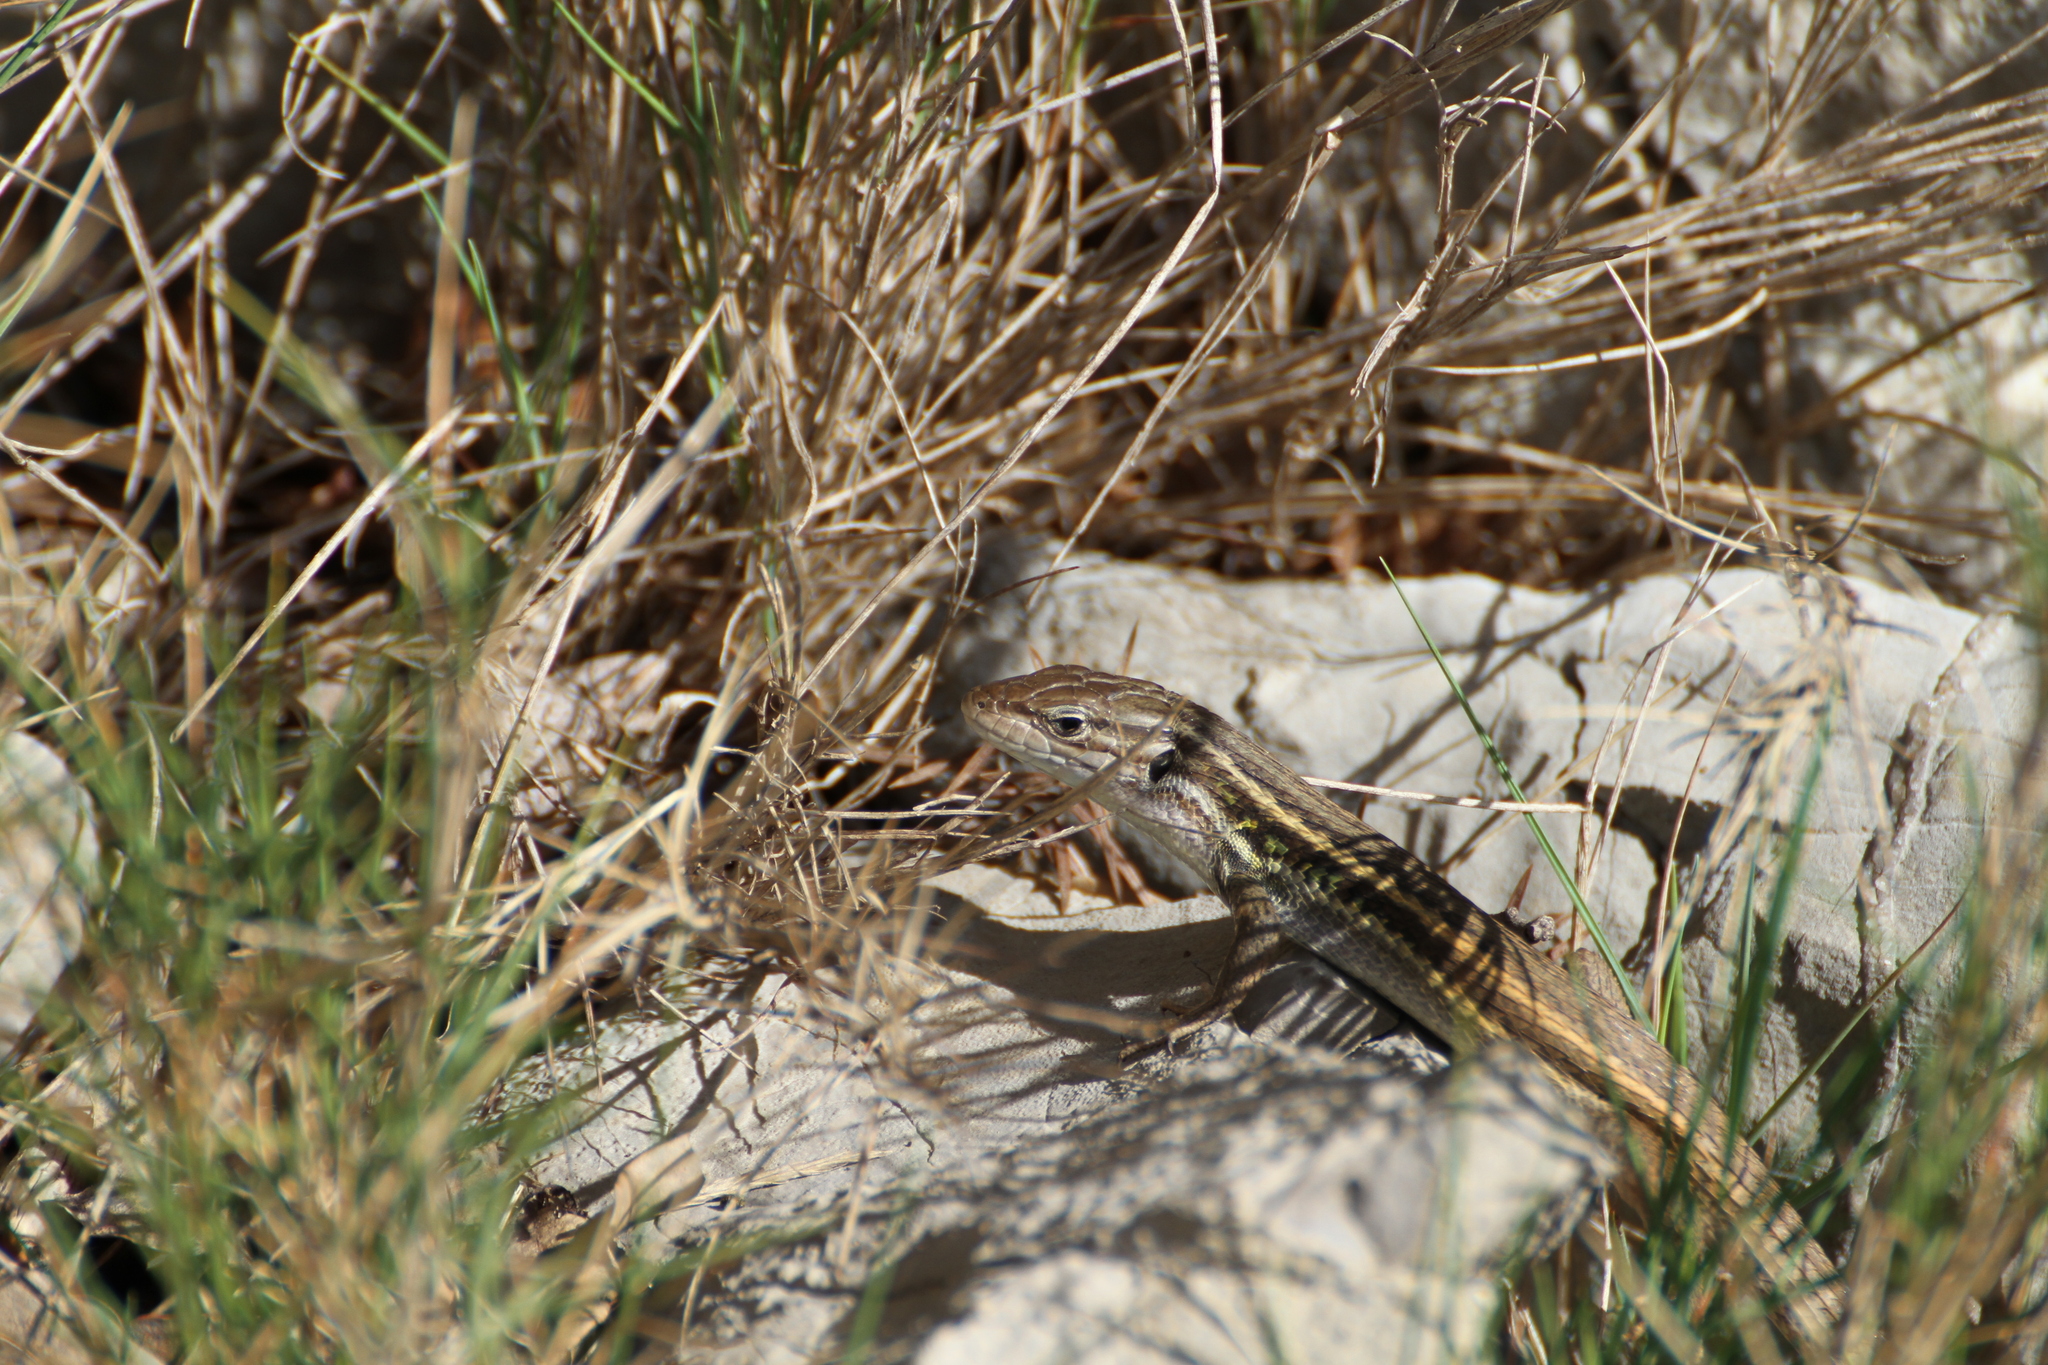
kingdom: Animalia
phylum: Chordata
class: Squamata
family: Lacertidae
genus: Psammodromus
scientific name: Psammodromus algirus
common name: Algerian psammodromus
